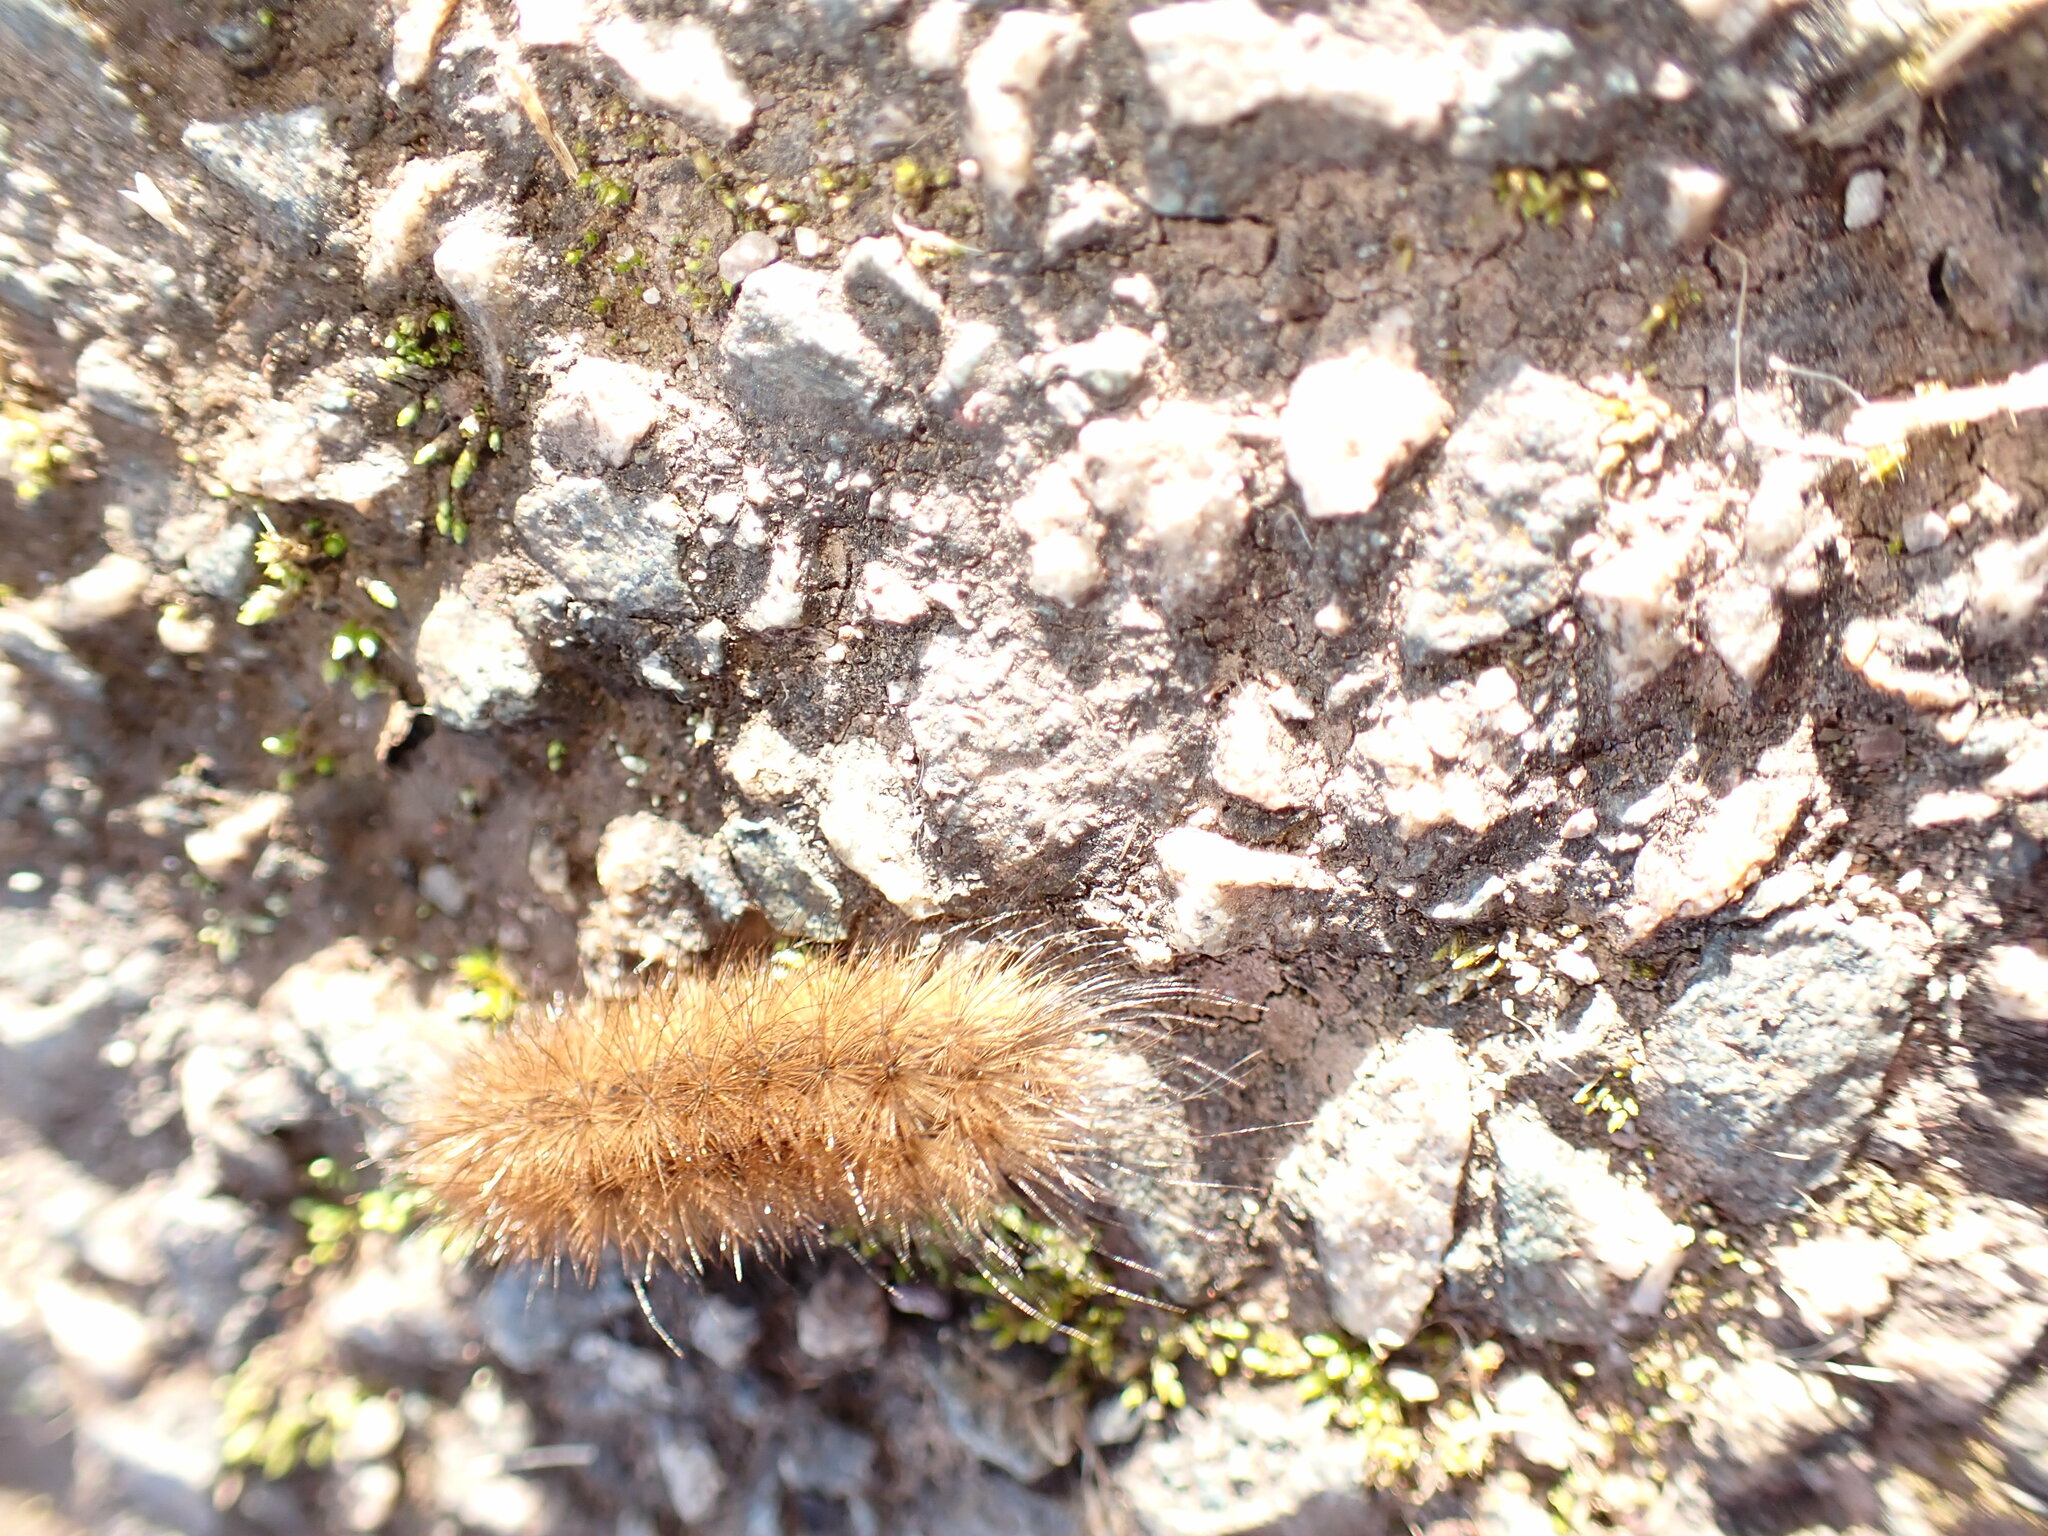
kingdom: Animalia
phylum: Arthropoda
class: Insecta
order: Lepidoptera
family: Erebidae
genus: Phragmatobia
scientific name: Phragmatobia fuliginosa
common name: Ruby tiger
